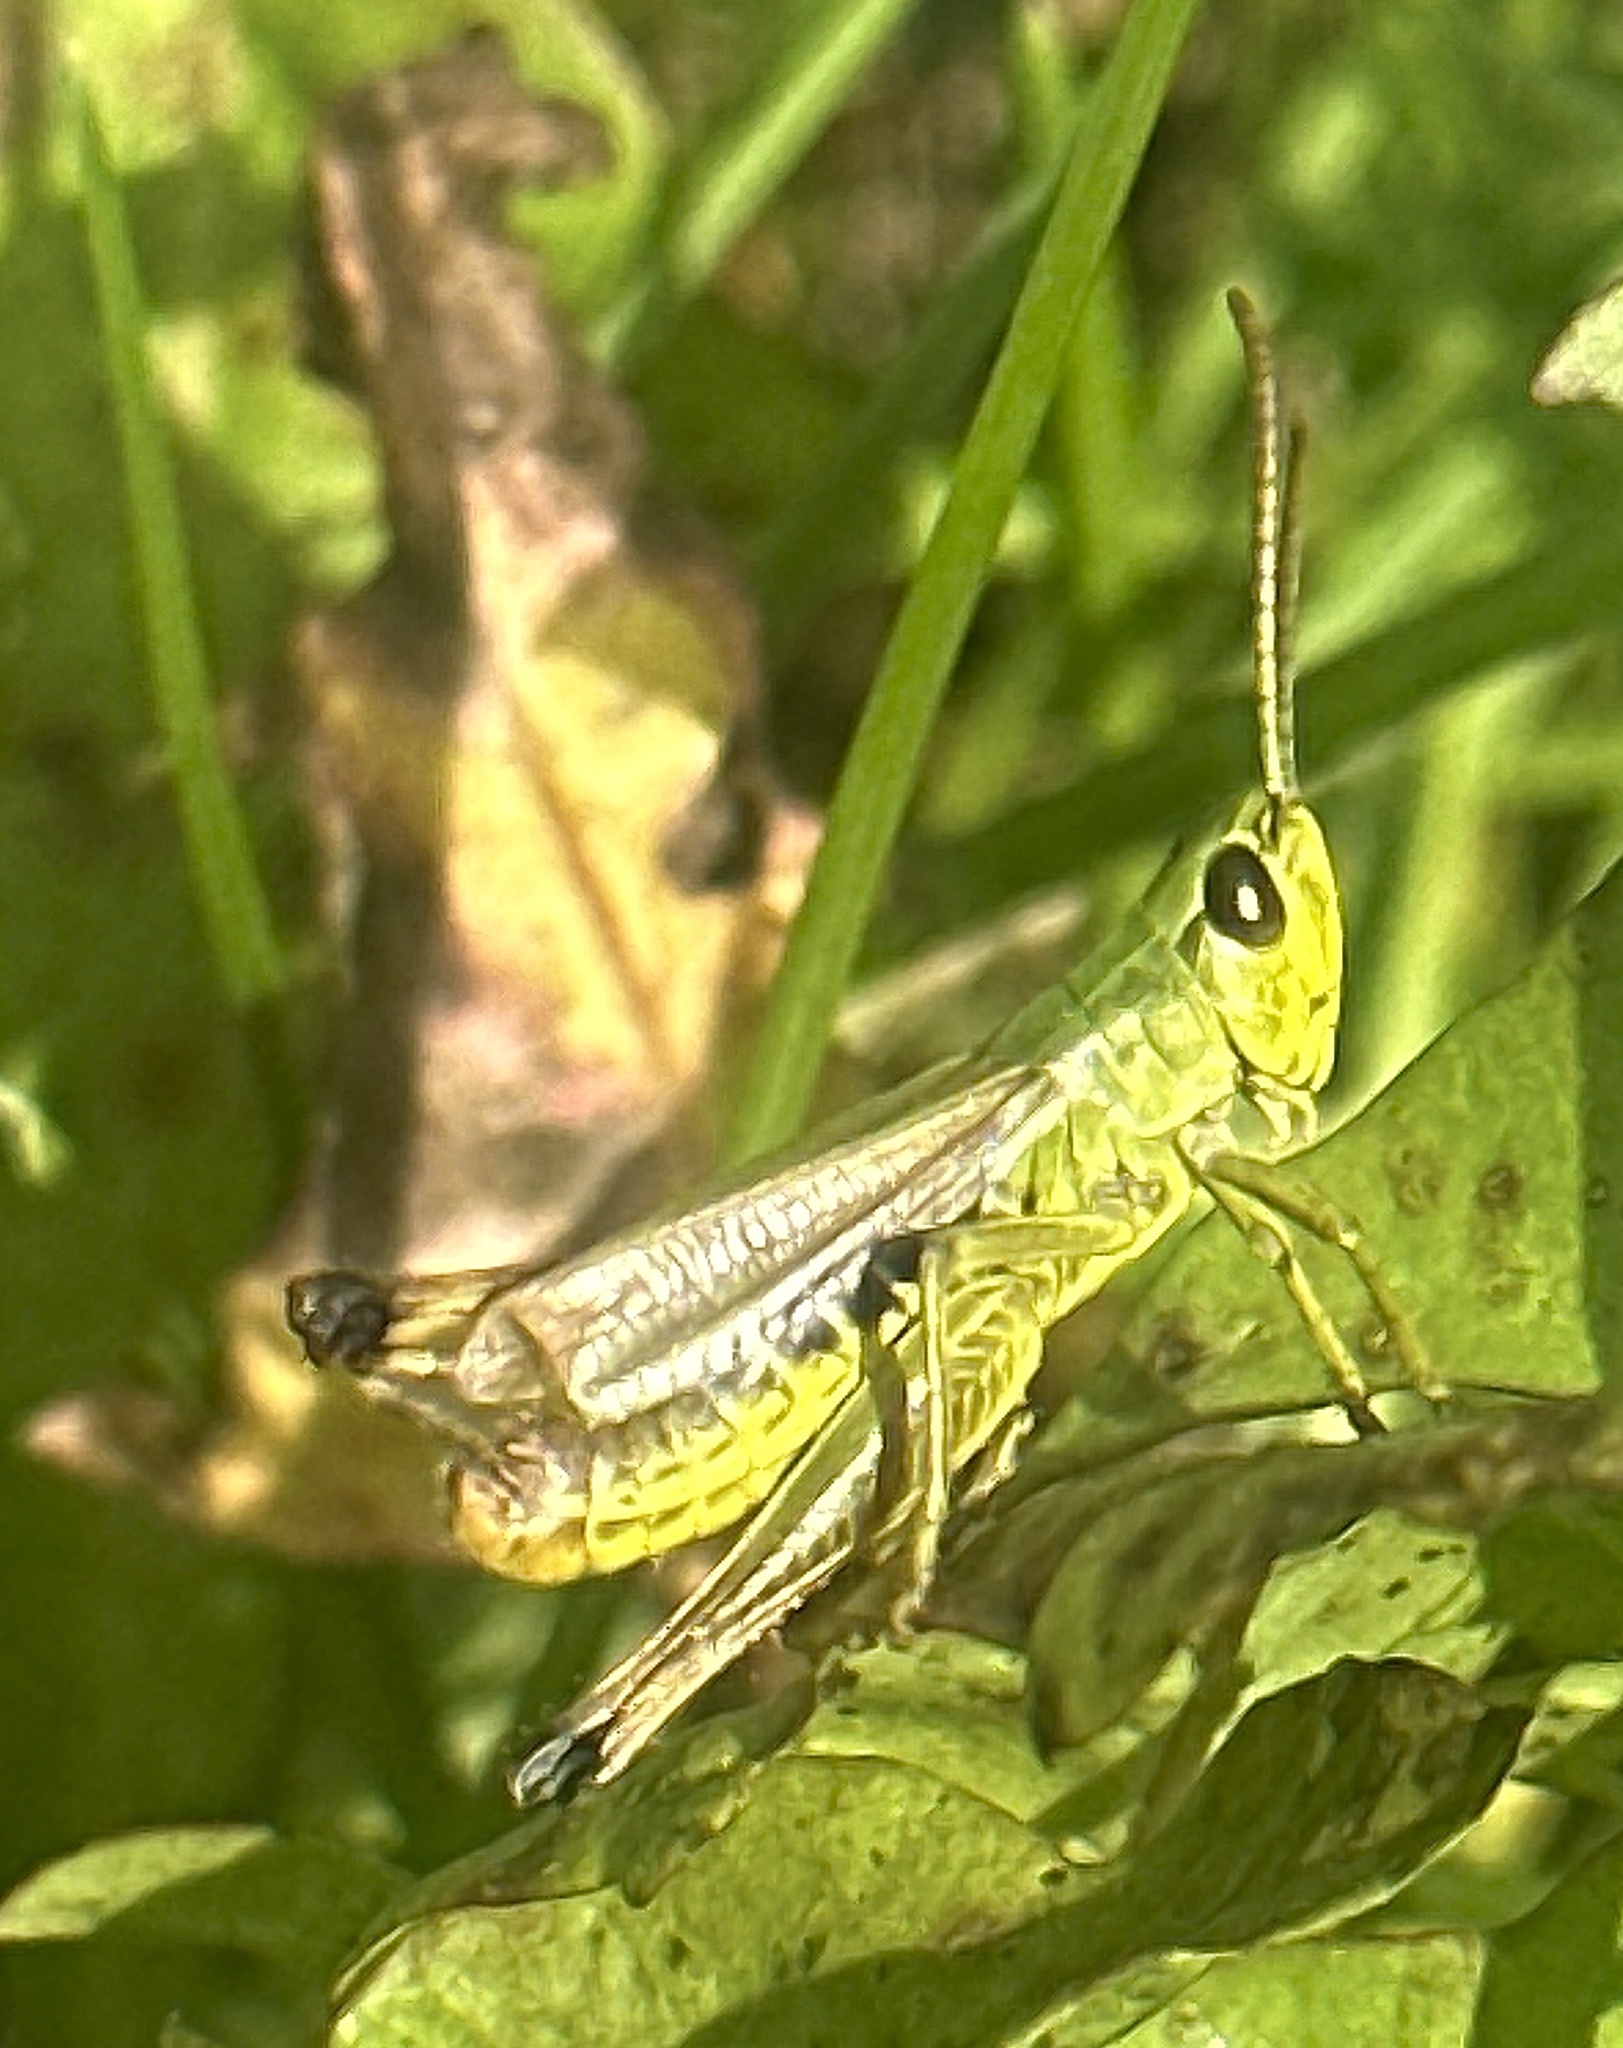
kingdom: Animalia
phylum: Arthropoda
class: Insecta
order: Orthoptera
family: Acrididae
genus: Pseudochorthippus
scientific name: Pseudochorthippus parallelus
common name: Meadow grasshopper
